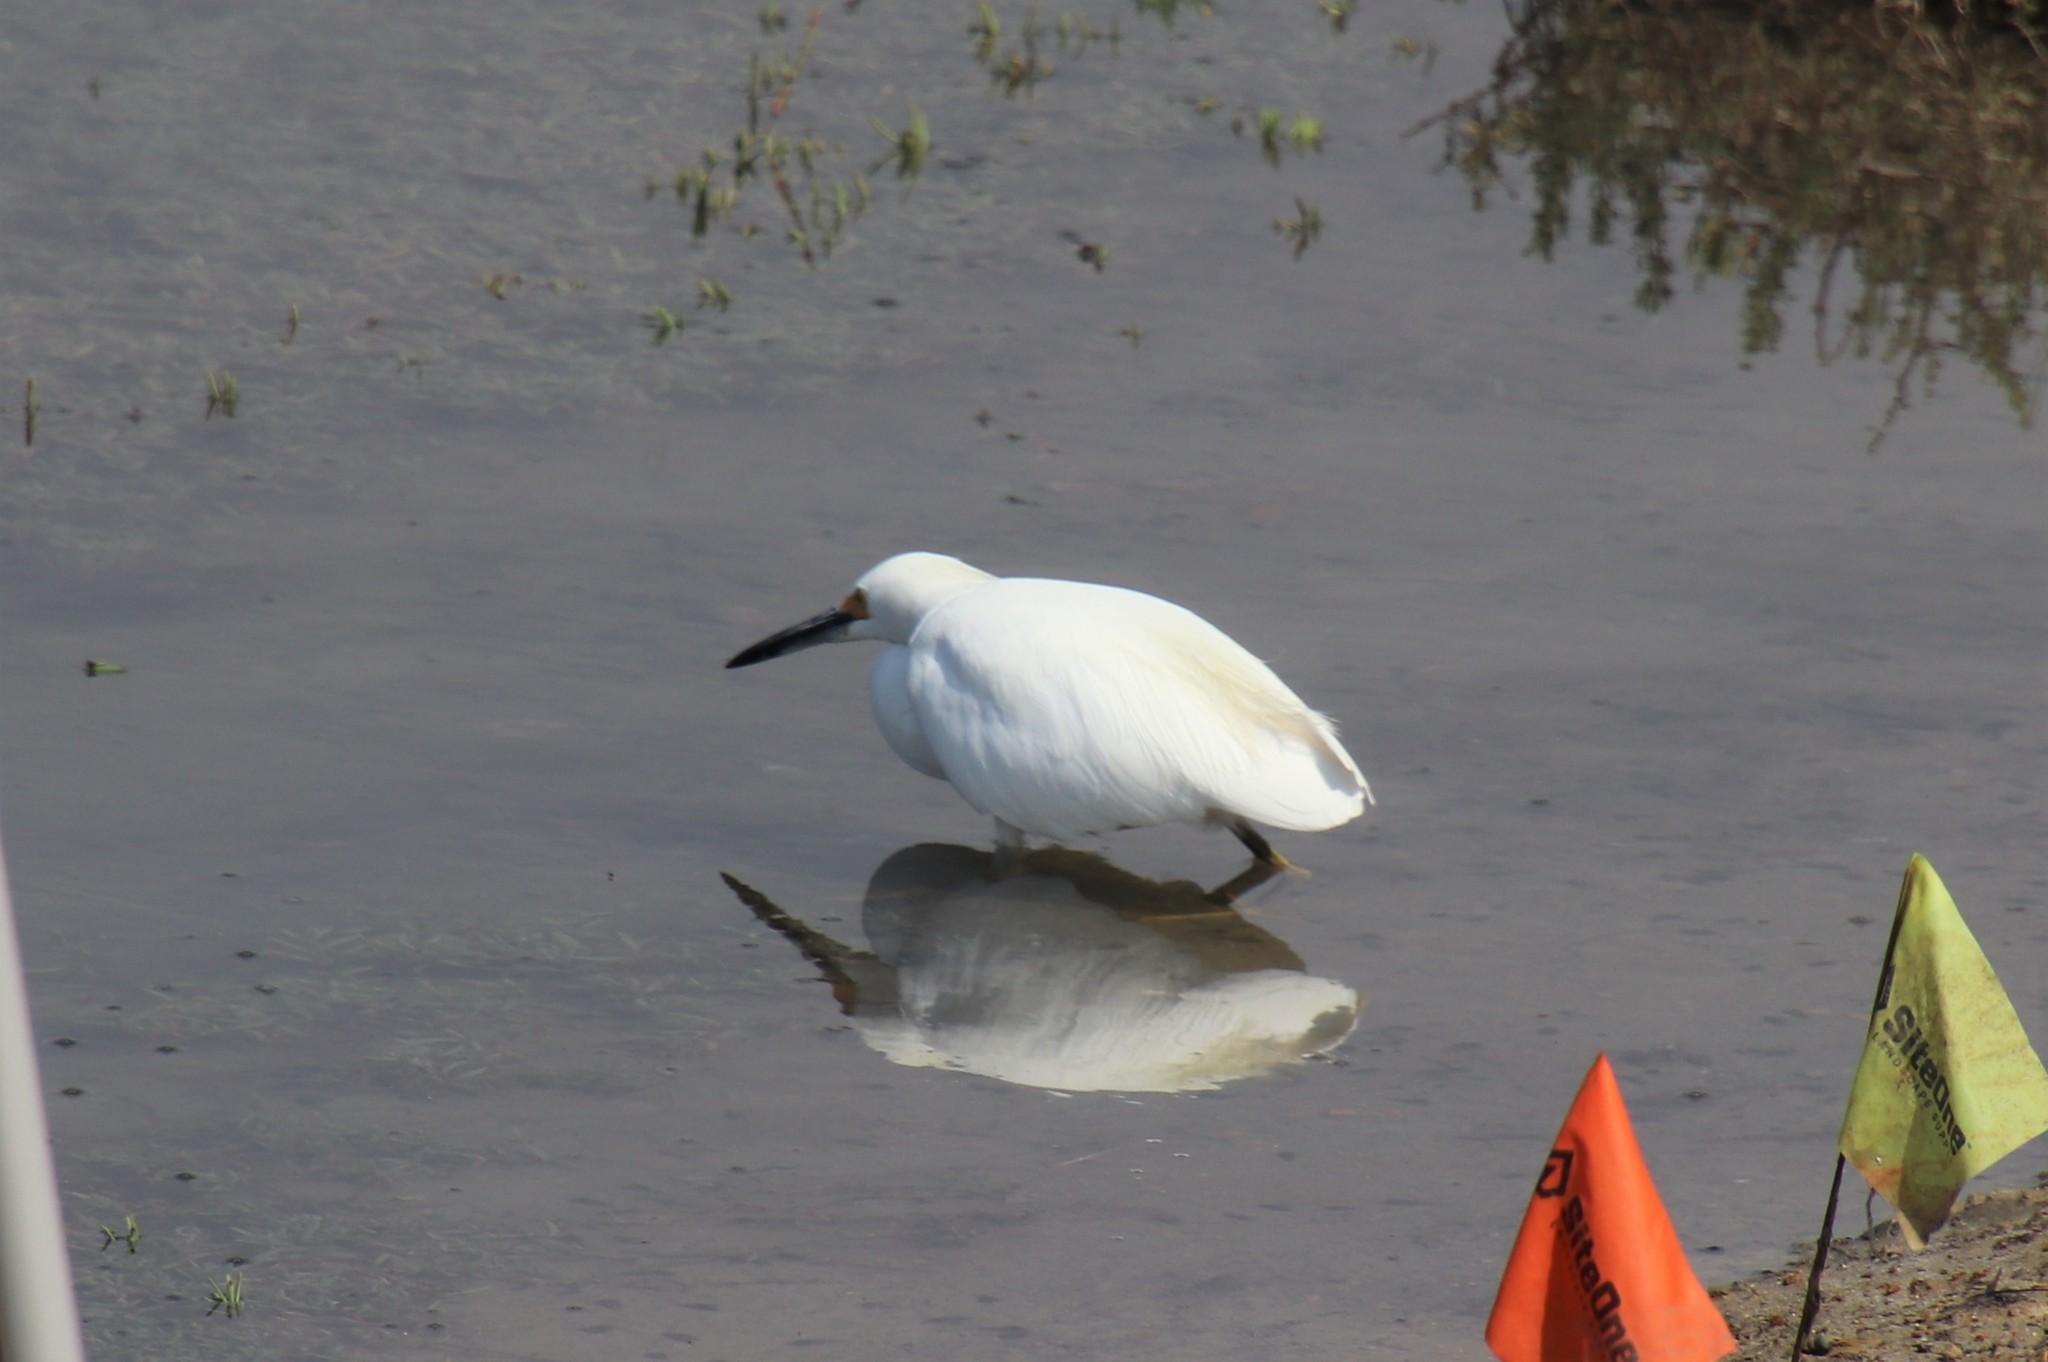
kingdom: Animalia
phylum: Chordata
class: Aves
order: Pelecaniformes
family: Ardeidae
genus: Egretta
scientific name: Egretta thula
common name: Snowy egret
